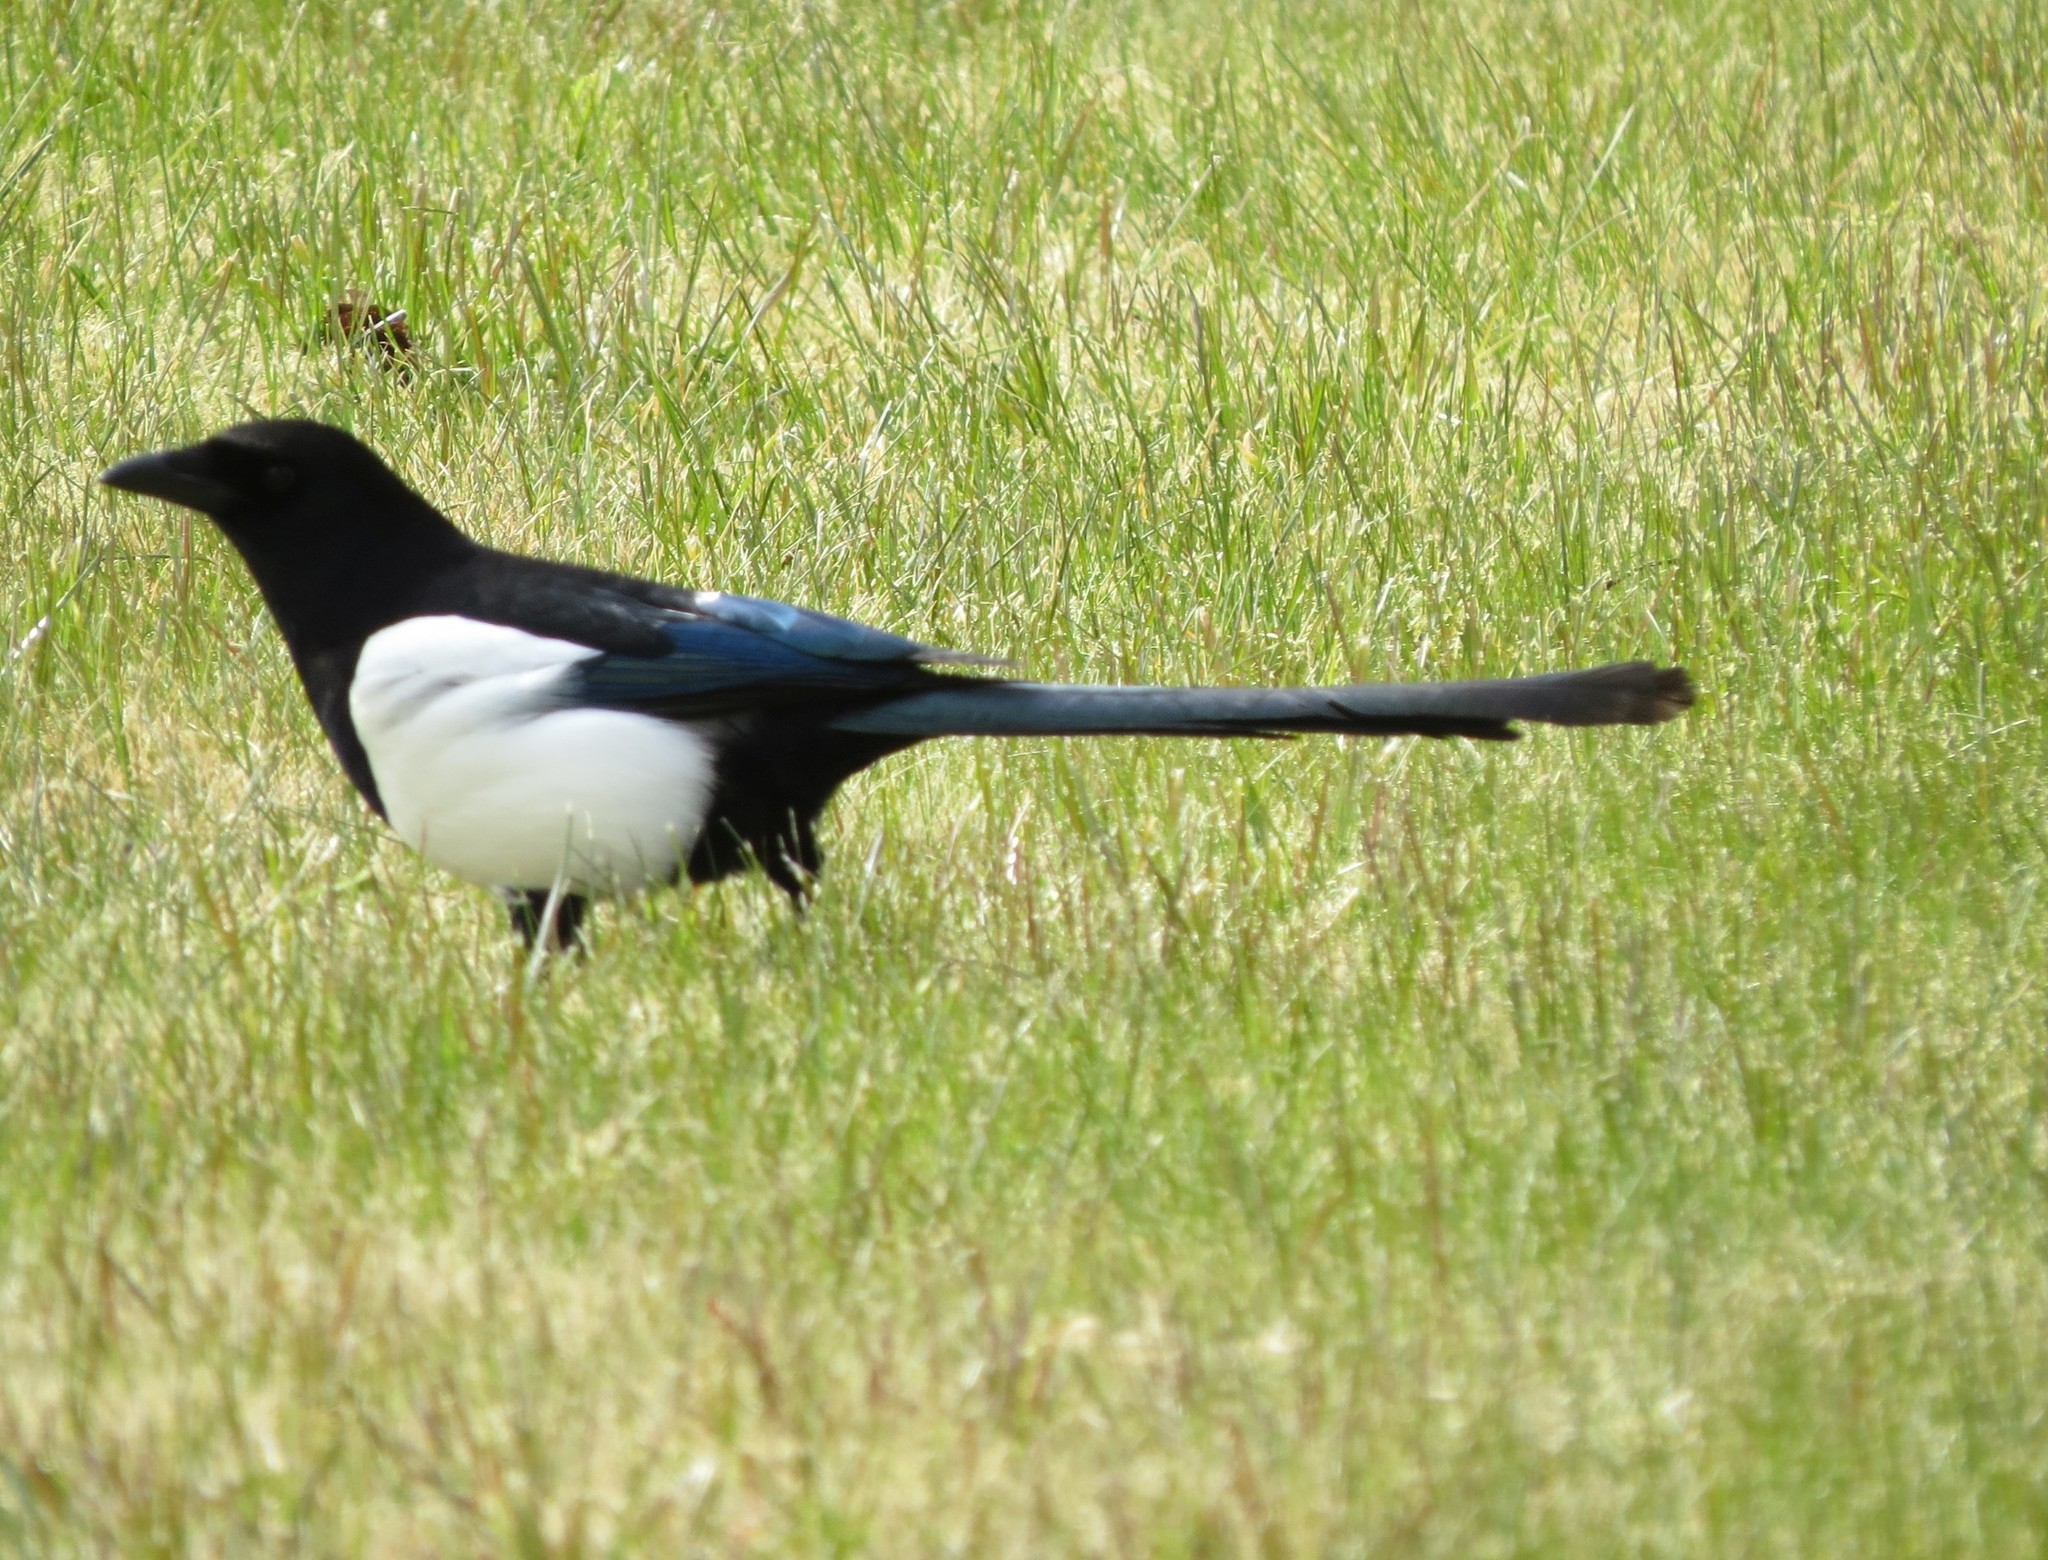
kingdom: Animalia
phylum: Chordata
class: Aves
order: Passeriformes
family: Corvidae
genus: Pica
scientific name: Pica pica
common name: Eurasian magpie
